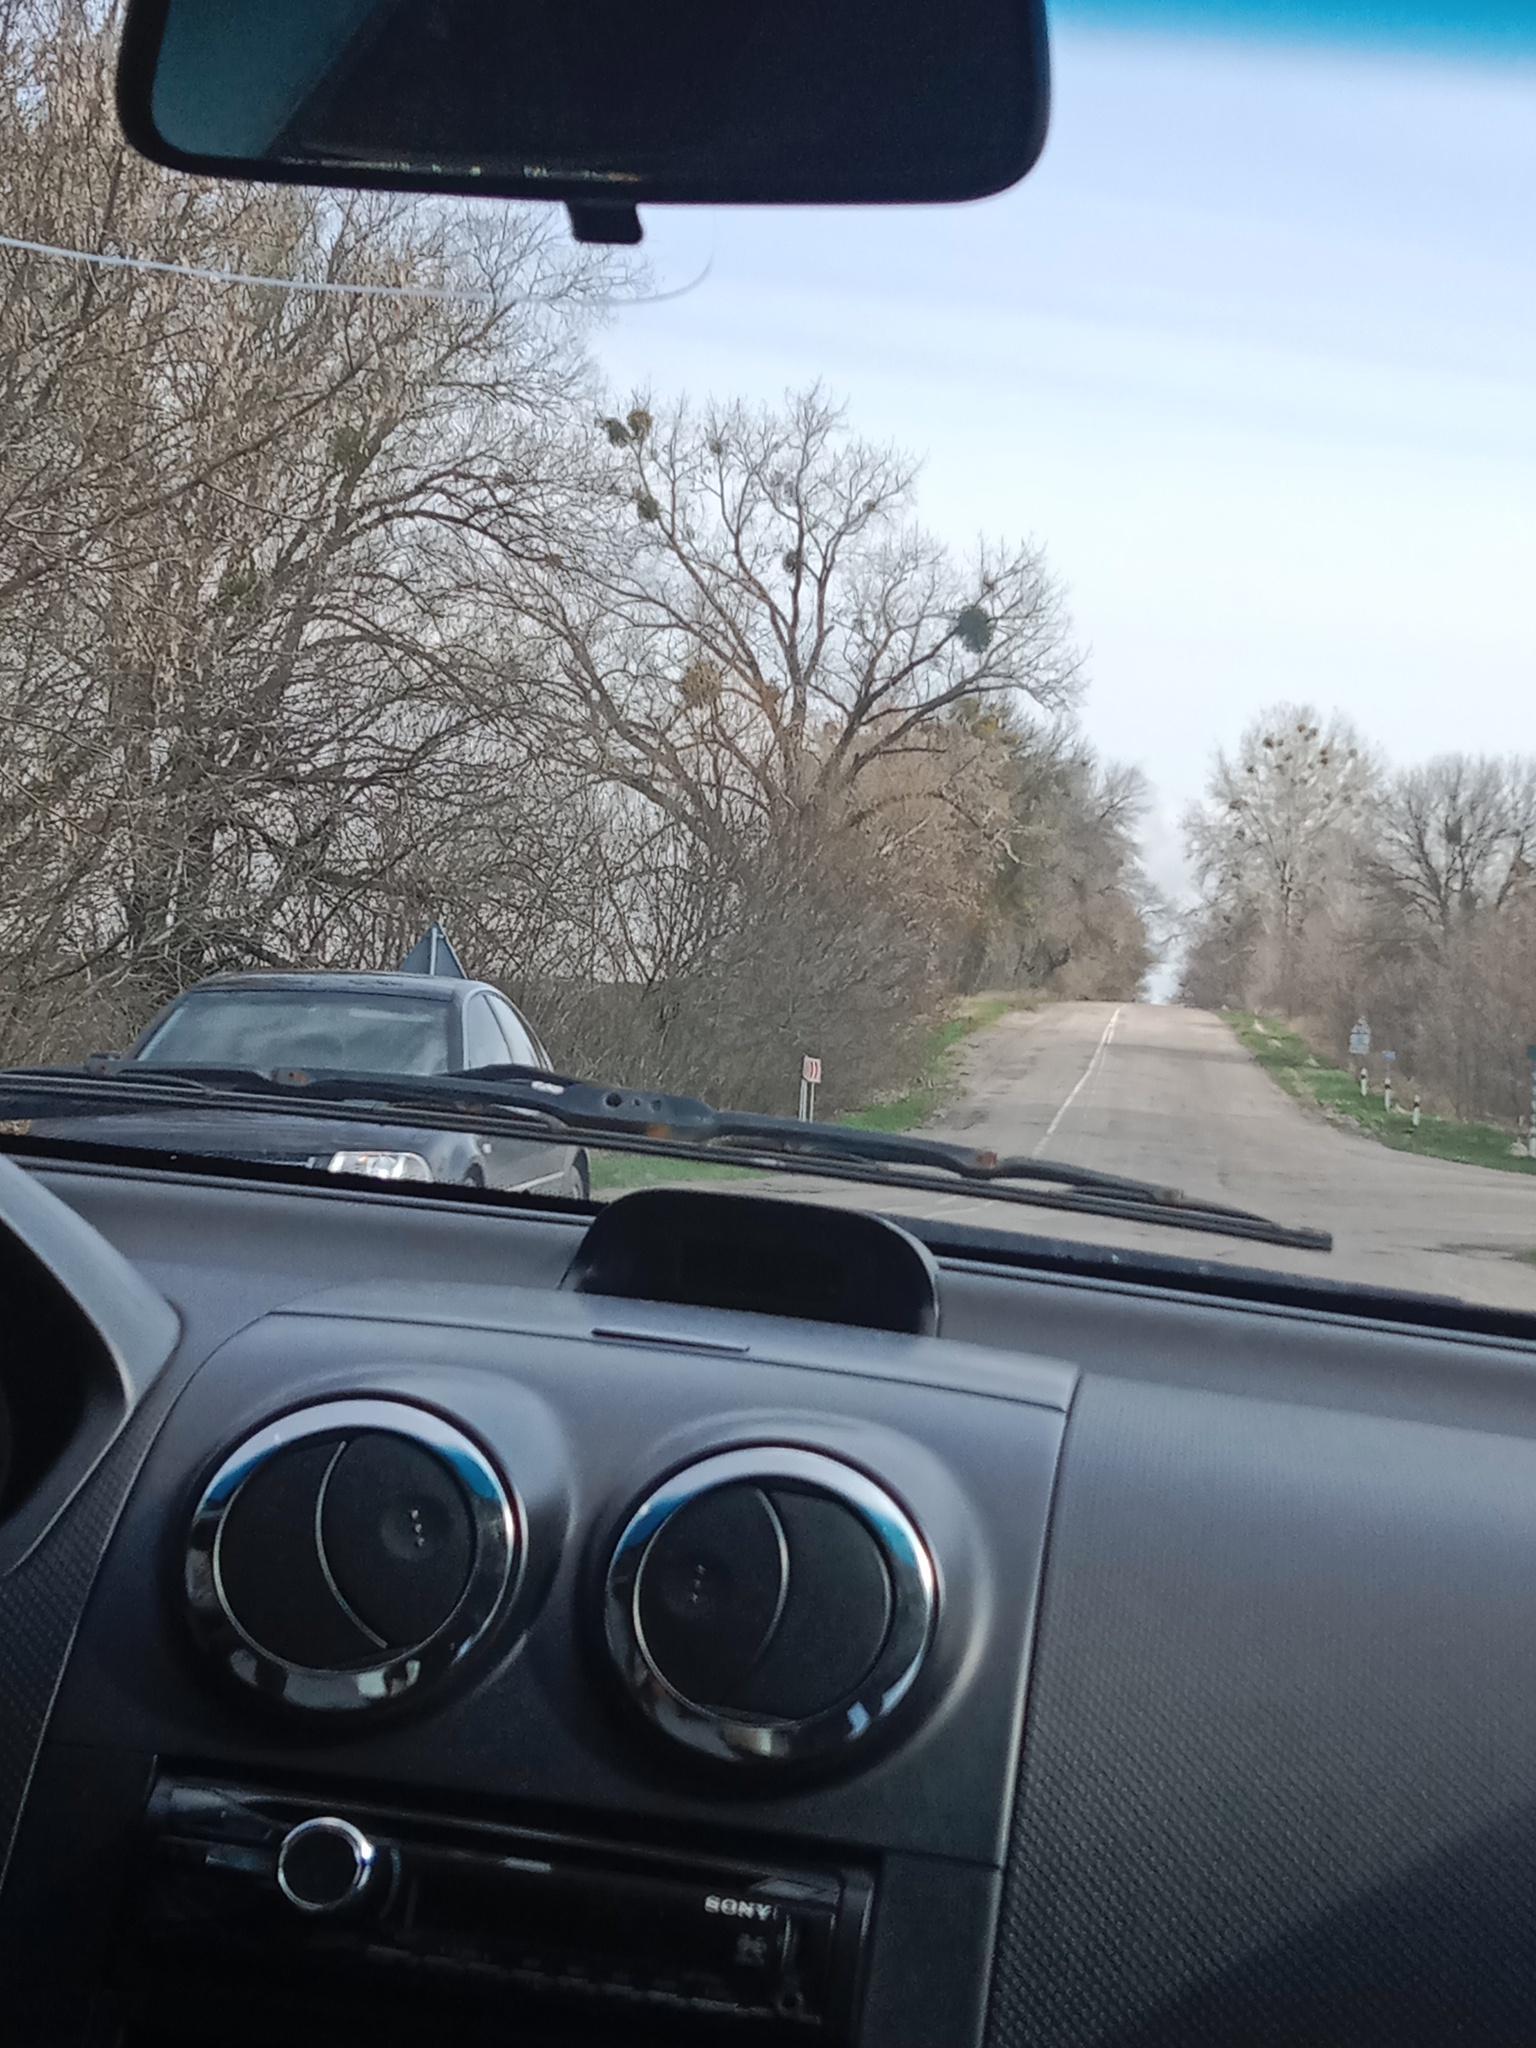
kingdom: Plantae
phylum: Tracheophyta
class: Magnoliopsida
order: Santalales
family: Viscaceae
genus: Viscum
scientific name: Viscum album
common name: Mistletoe
